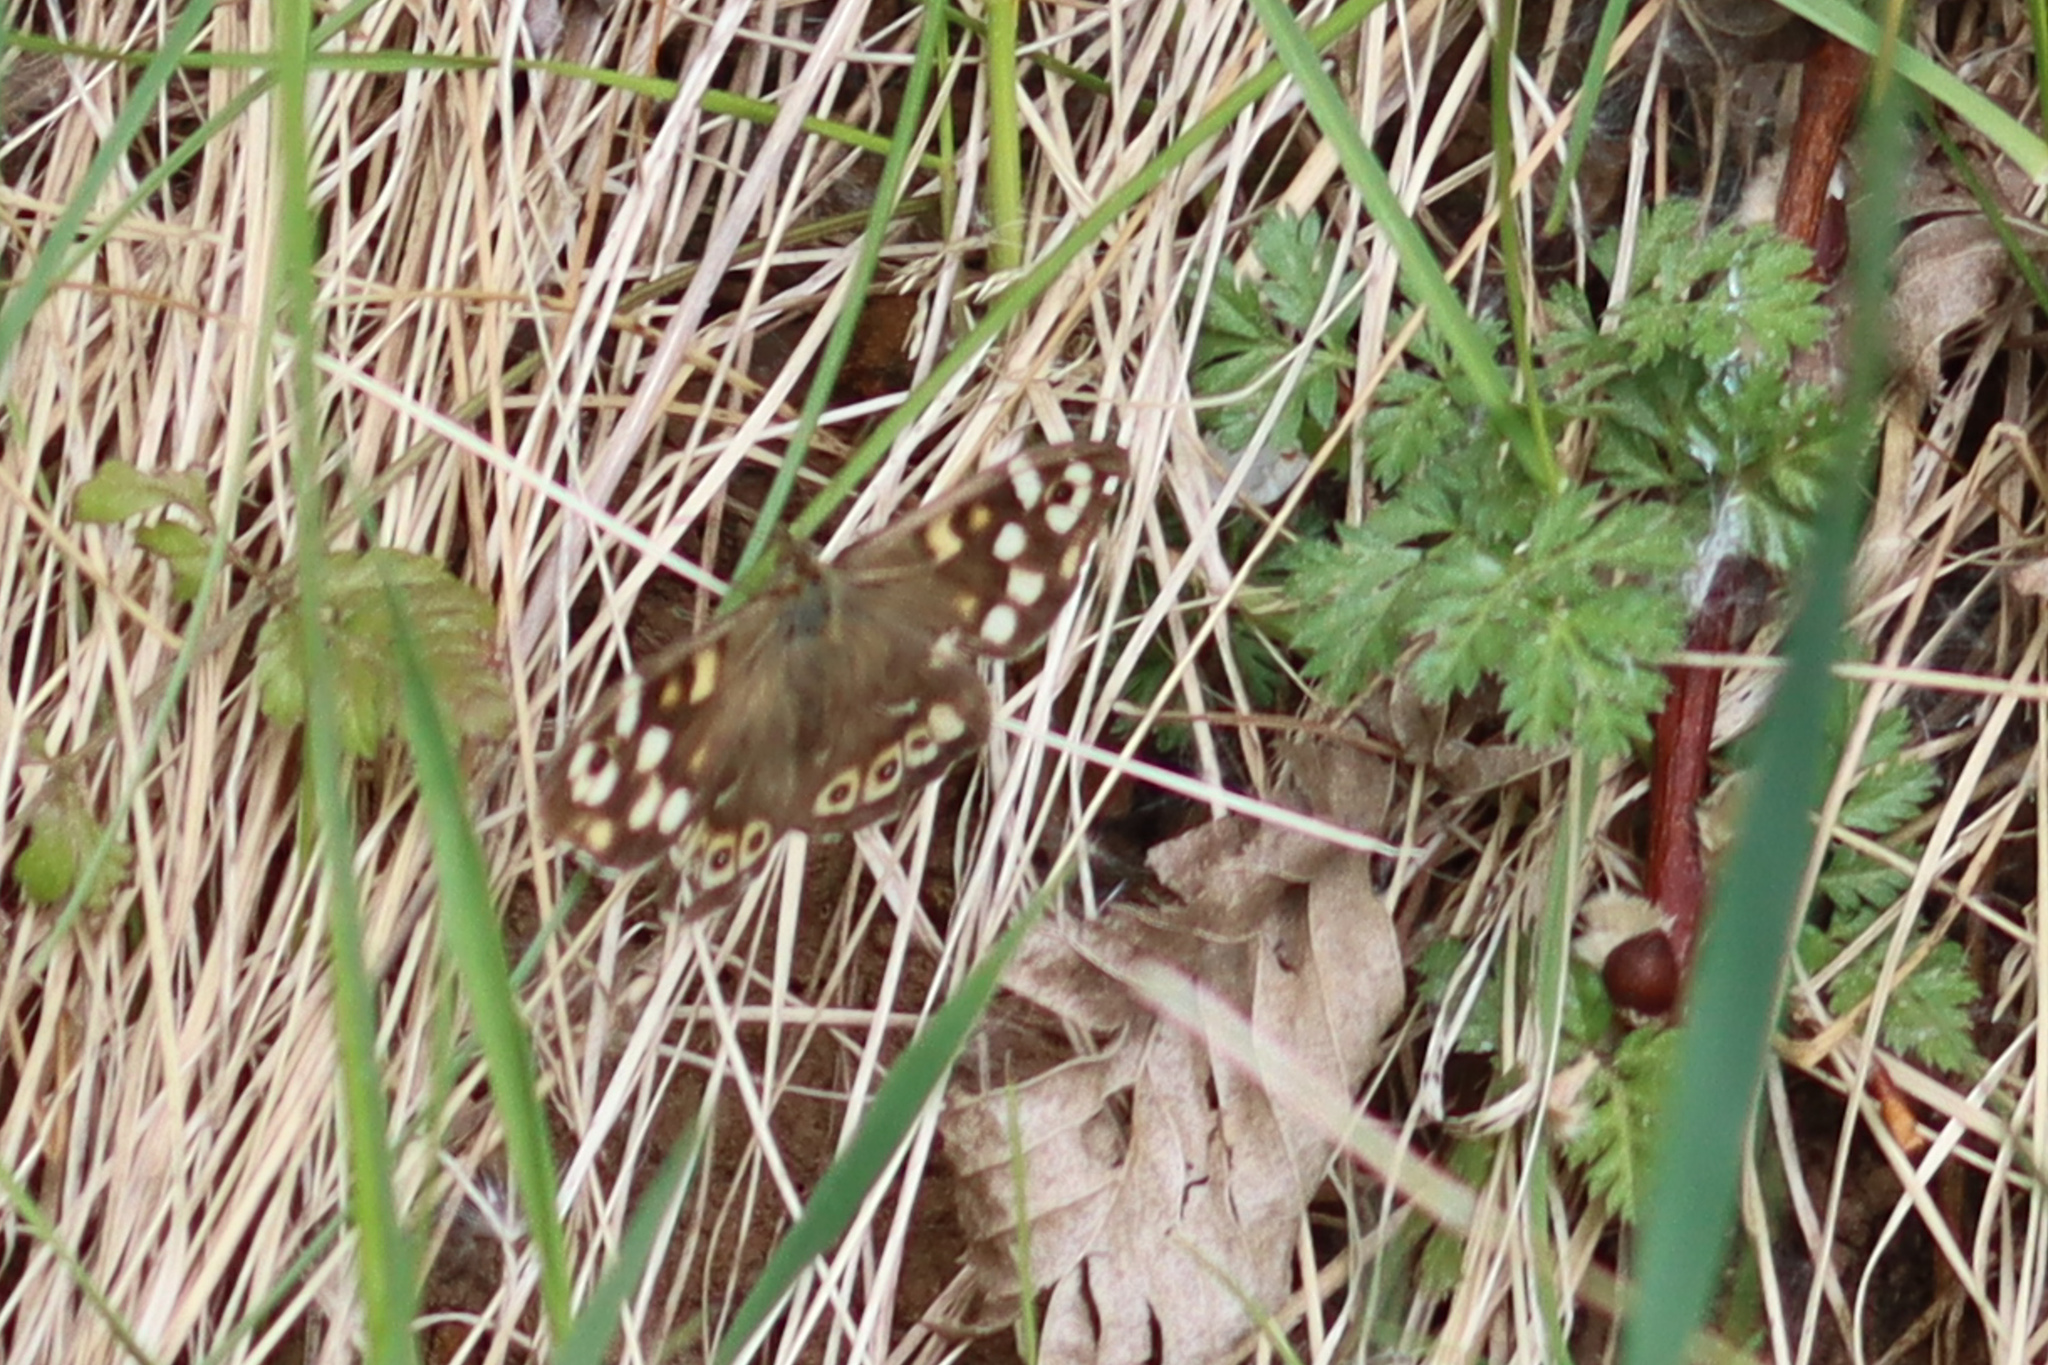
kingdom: Animalia
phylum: Arthropoda
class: Insecta
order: Lepidoptera
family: Nymphalidae
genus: Pararge
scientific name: Pararge aegeria
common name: Speckled wood
